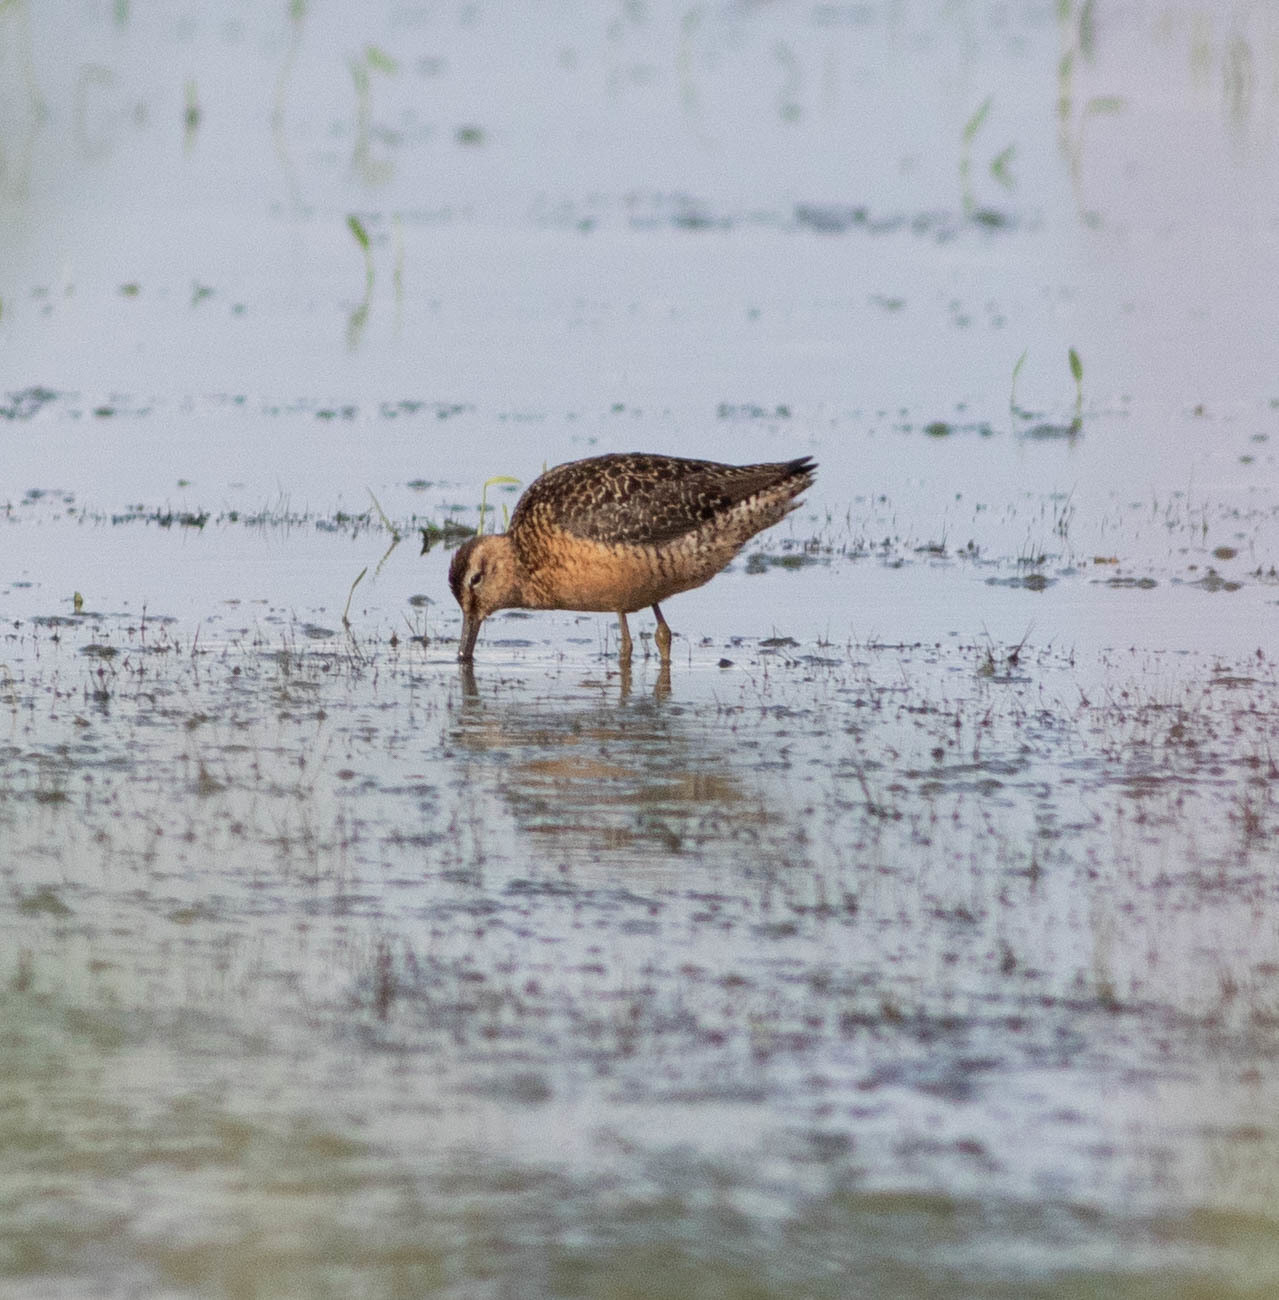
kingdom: Animalia
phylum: Chordata
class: Aves
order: Charadriiformes
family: Scolopacidae
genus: Limnodromus
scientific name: Limnodromus scolopaceus
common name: Long-billed dowitcher
